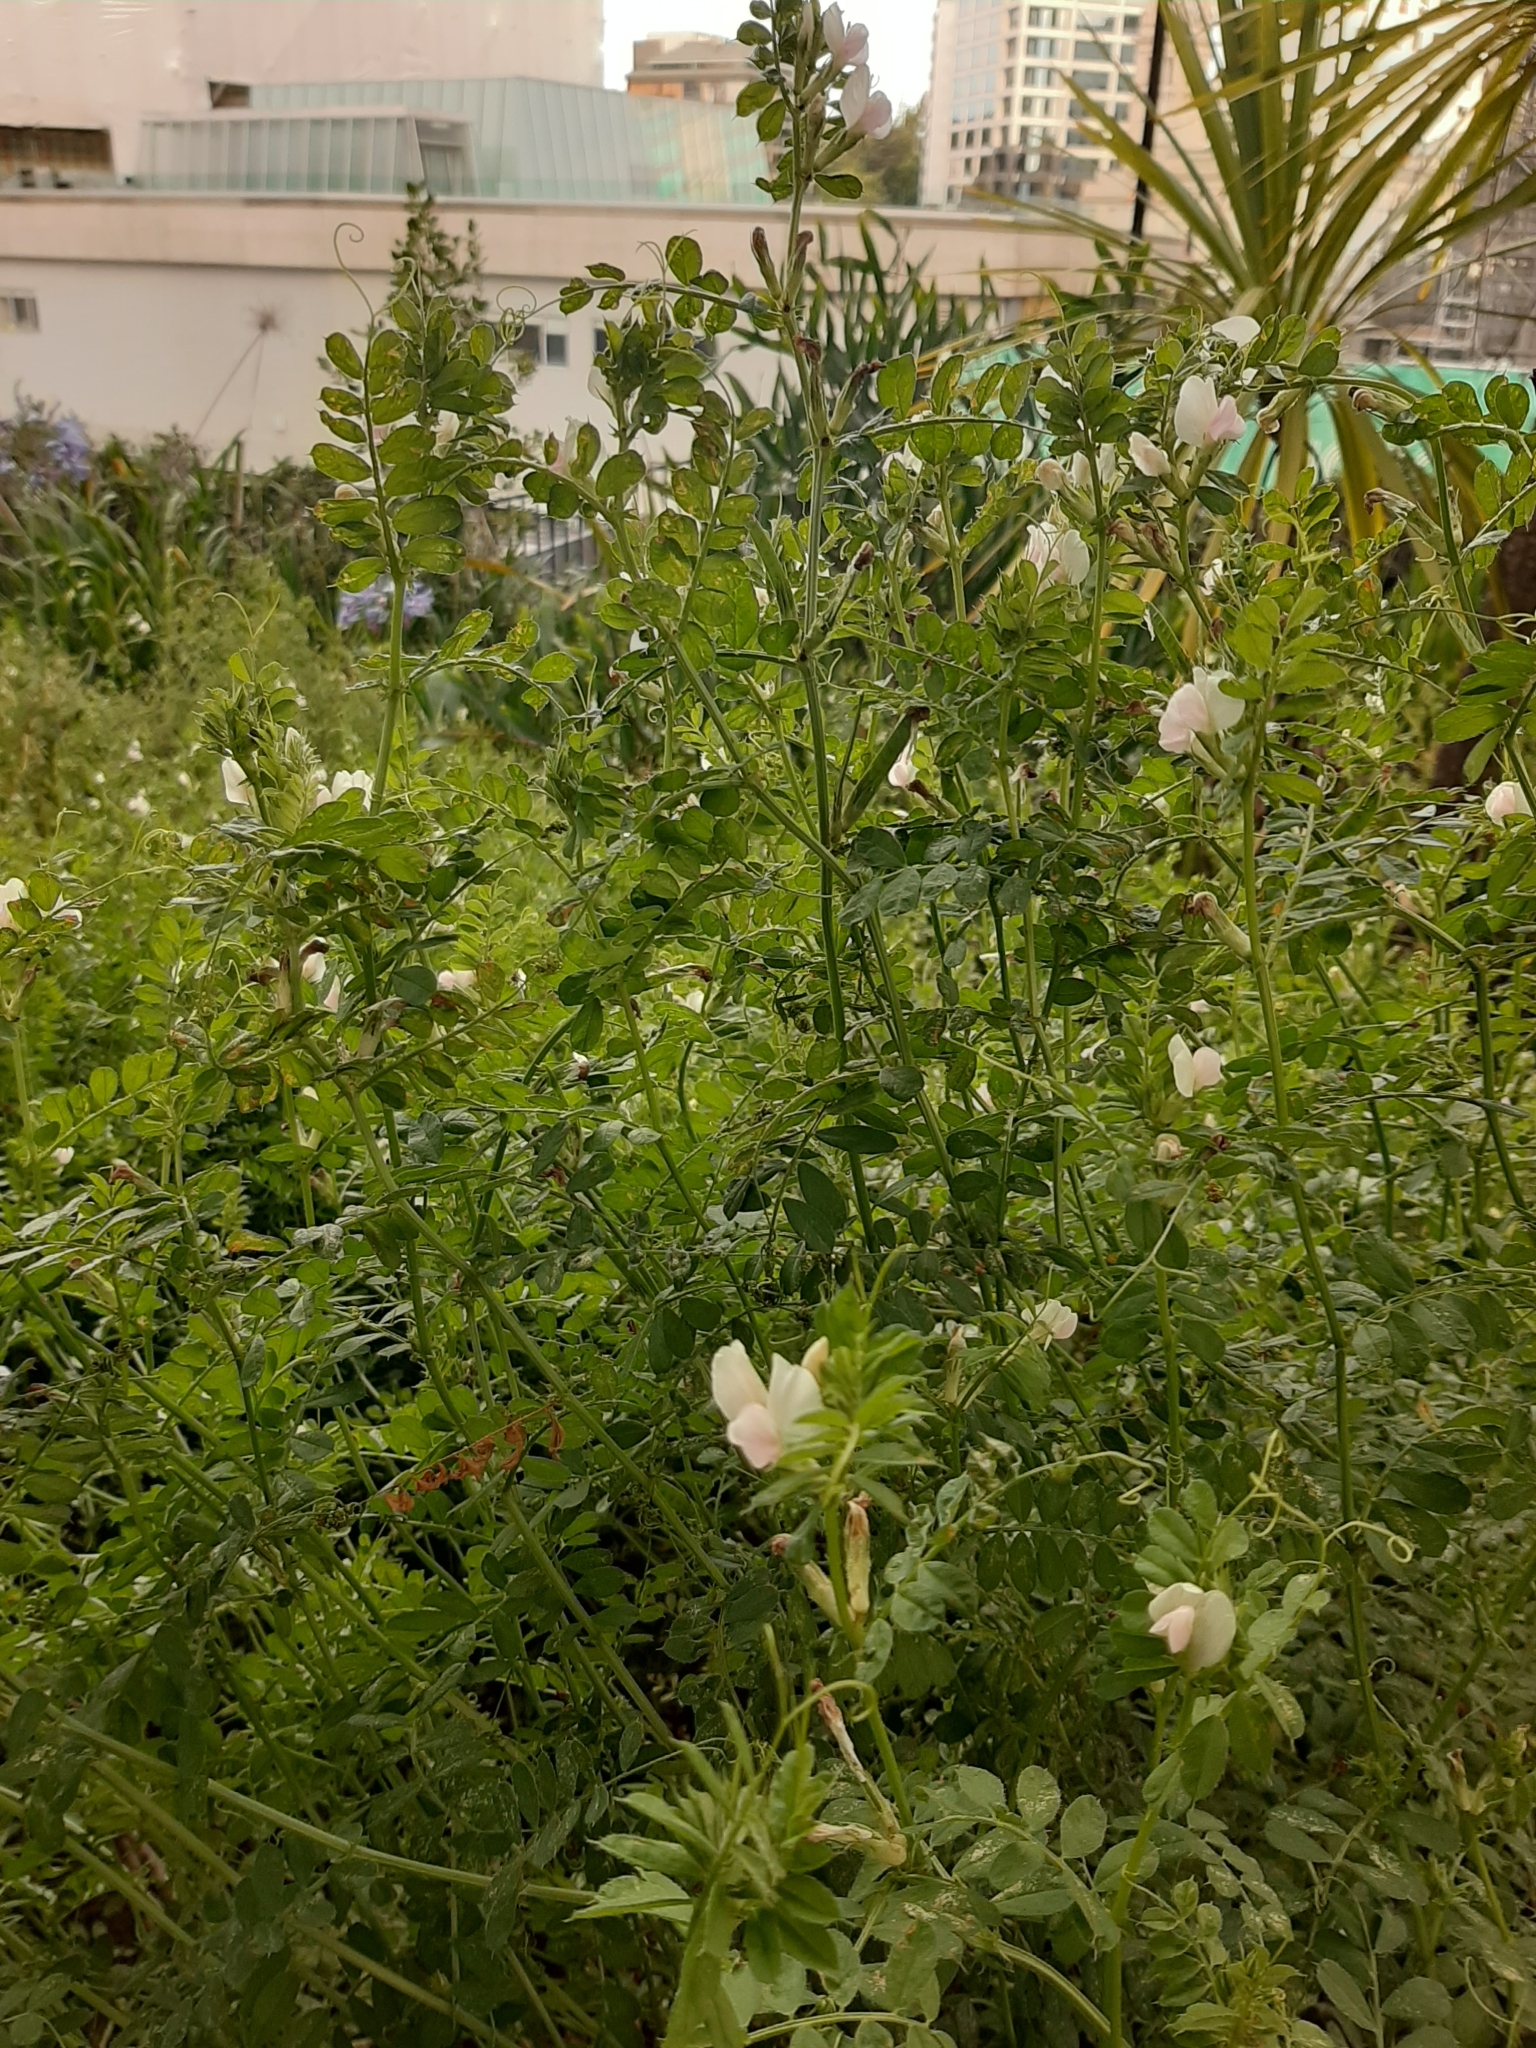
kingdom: Plantae
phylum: Tracheophyta
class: Magnoliopsida
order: Fabales
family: Fabaceae
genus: Vicia
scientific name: Vicia lutea
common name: Smooth yellow vetch
